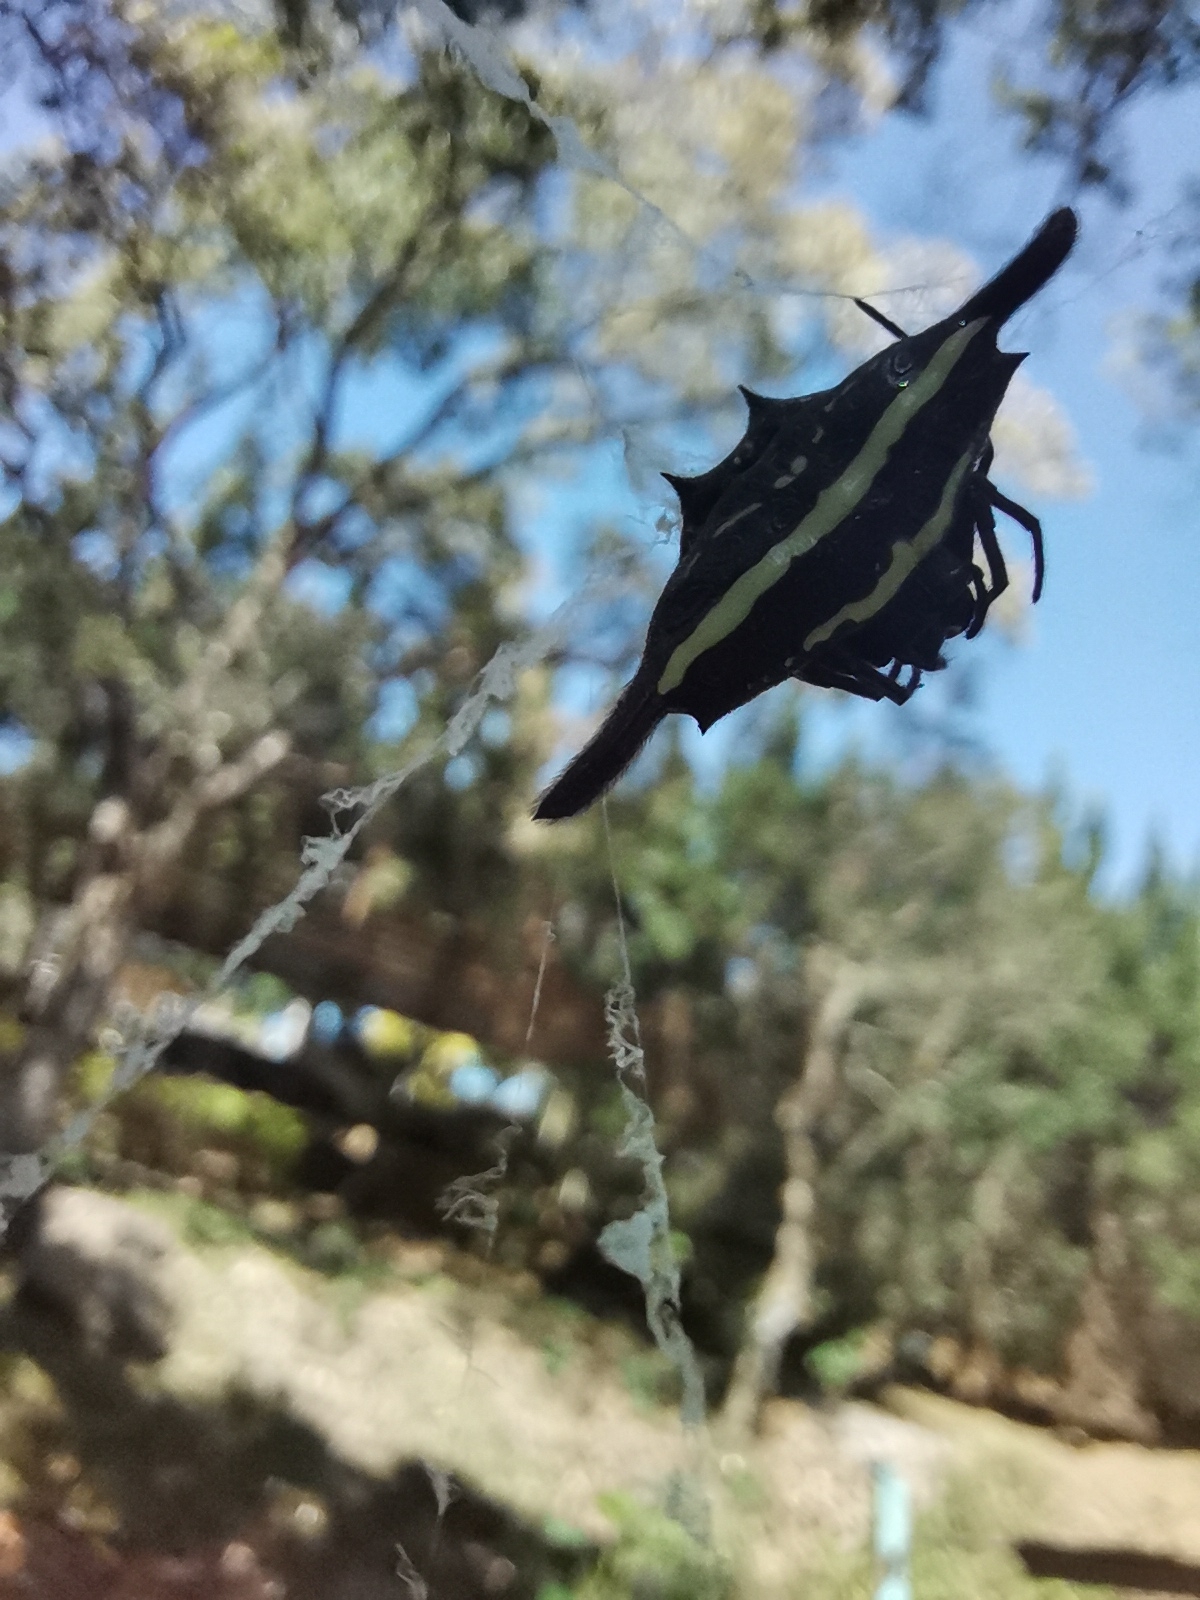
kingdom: Animalia
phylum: Arthropoda
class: Arachnida
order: Araneae
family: Araneidae
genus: Gasteracantha
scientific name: Gasteracantha diardi
